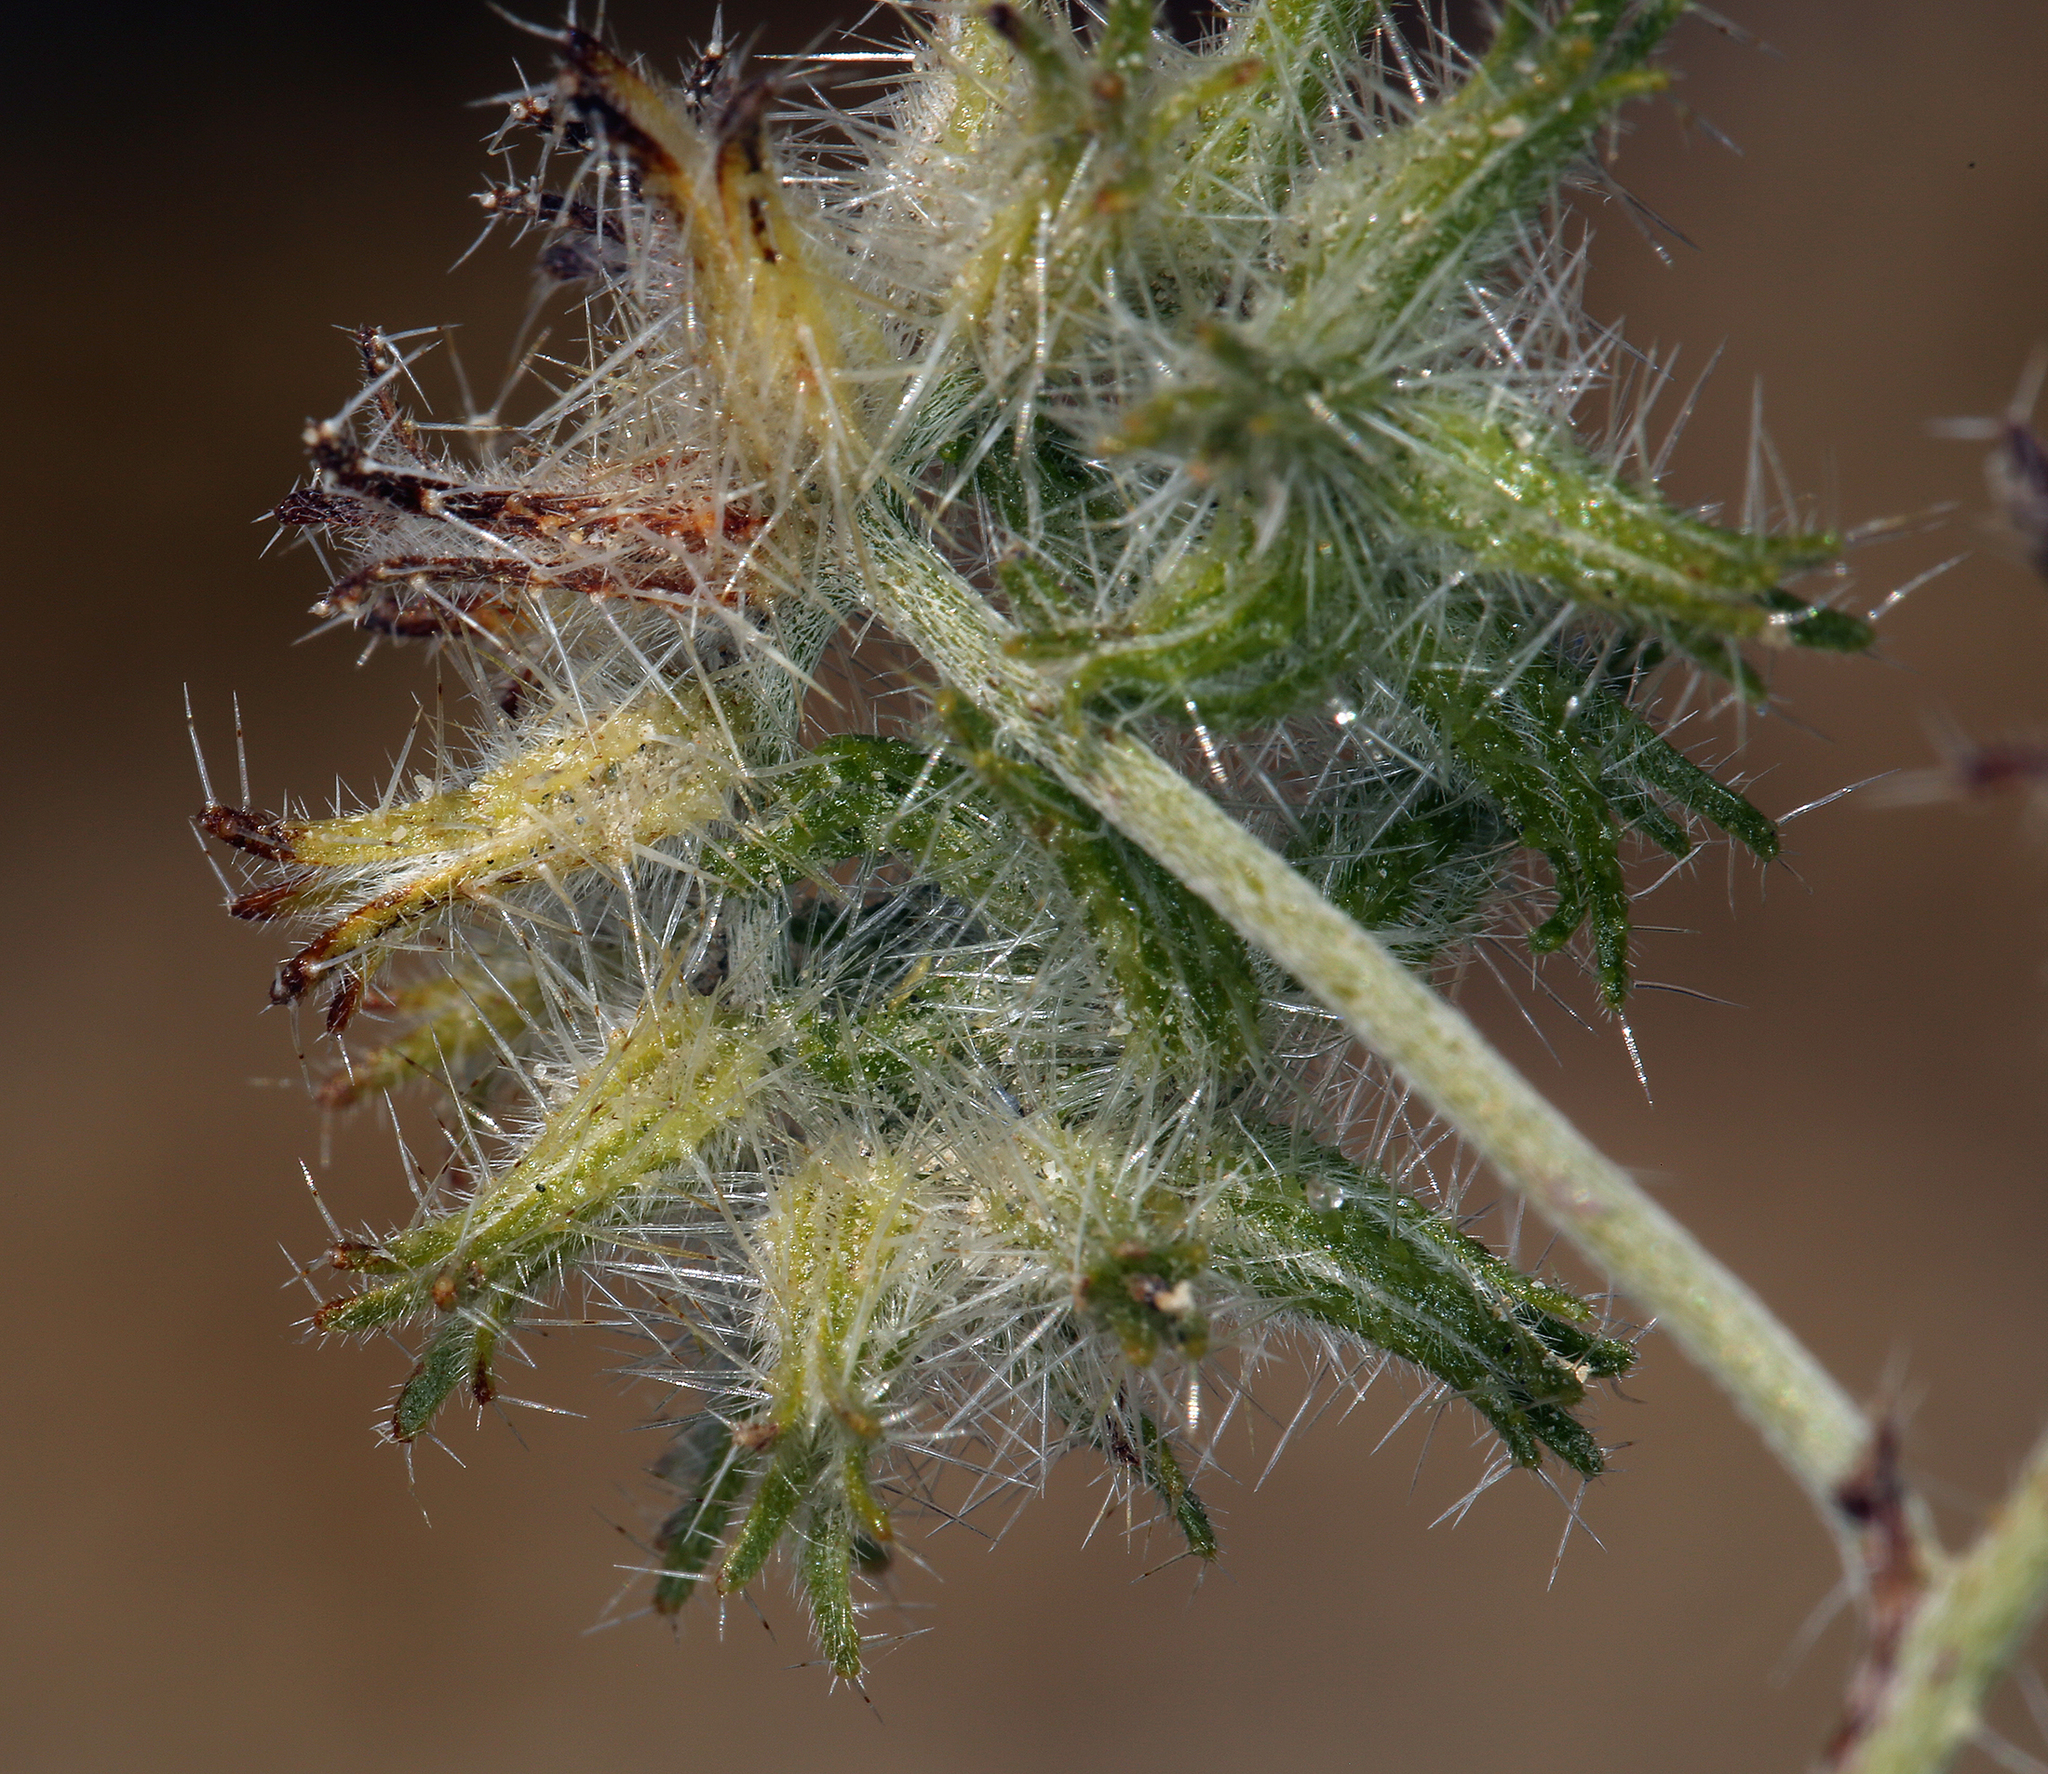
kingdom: Plantae
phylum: Tracheophyta
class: Magnoliopsida
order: Boraginales
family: Boraginaceae
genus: Cryptantha
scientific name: Cryptantha nevadensis
